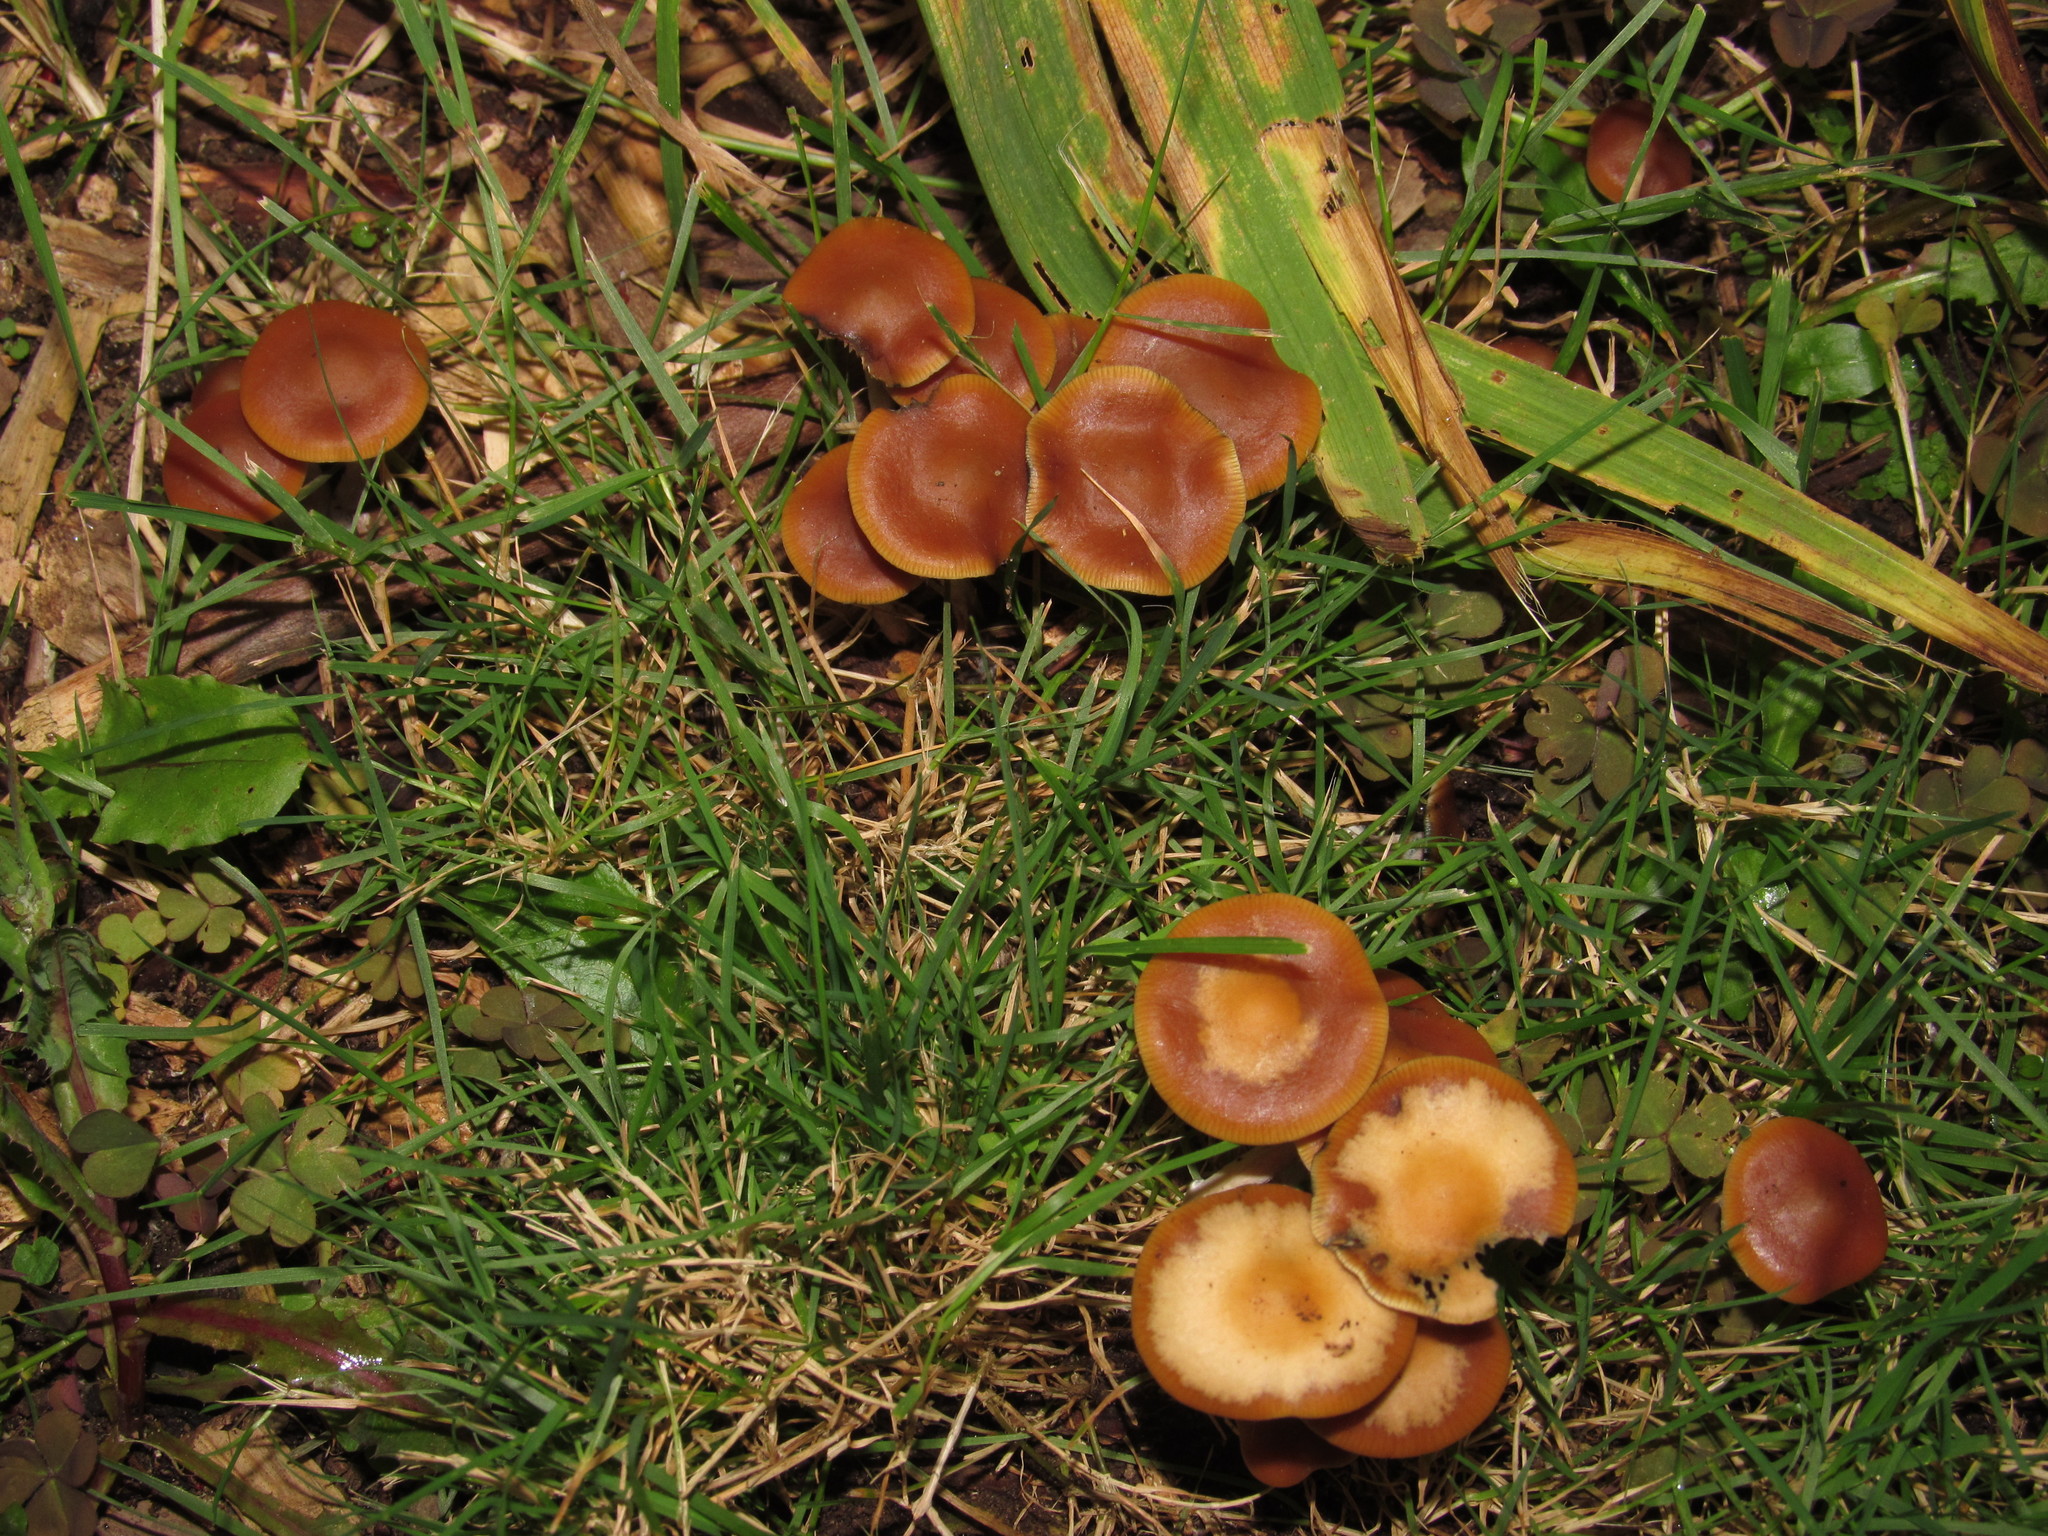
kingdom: Fungi
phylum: Basidiomycota
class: Agaricomycetes
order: Agaricales
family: Hymenogastraceae
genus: Psilocybe
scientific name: Psilocybe cyanescens
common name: Blueleg brownie
